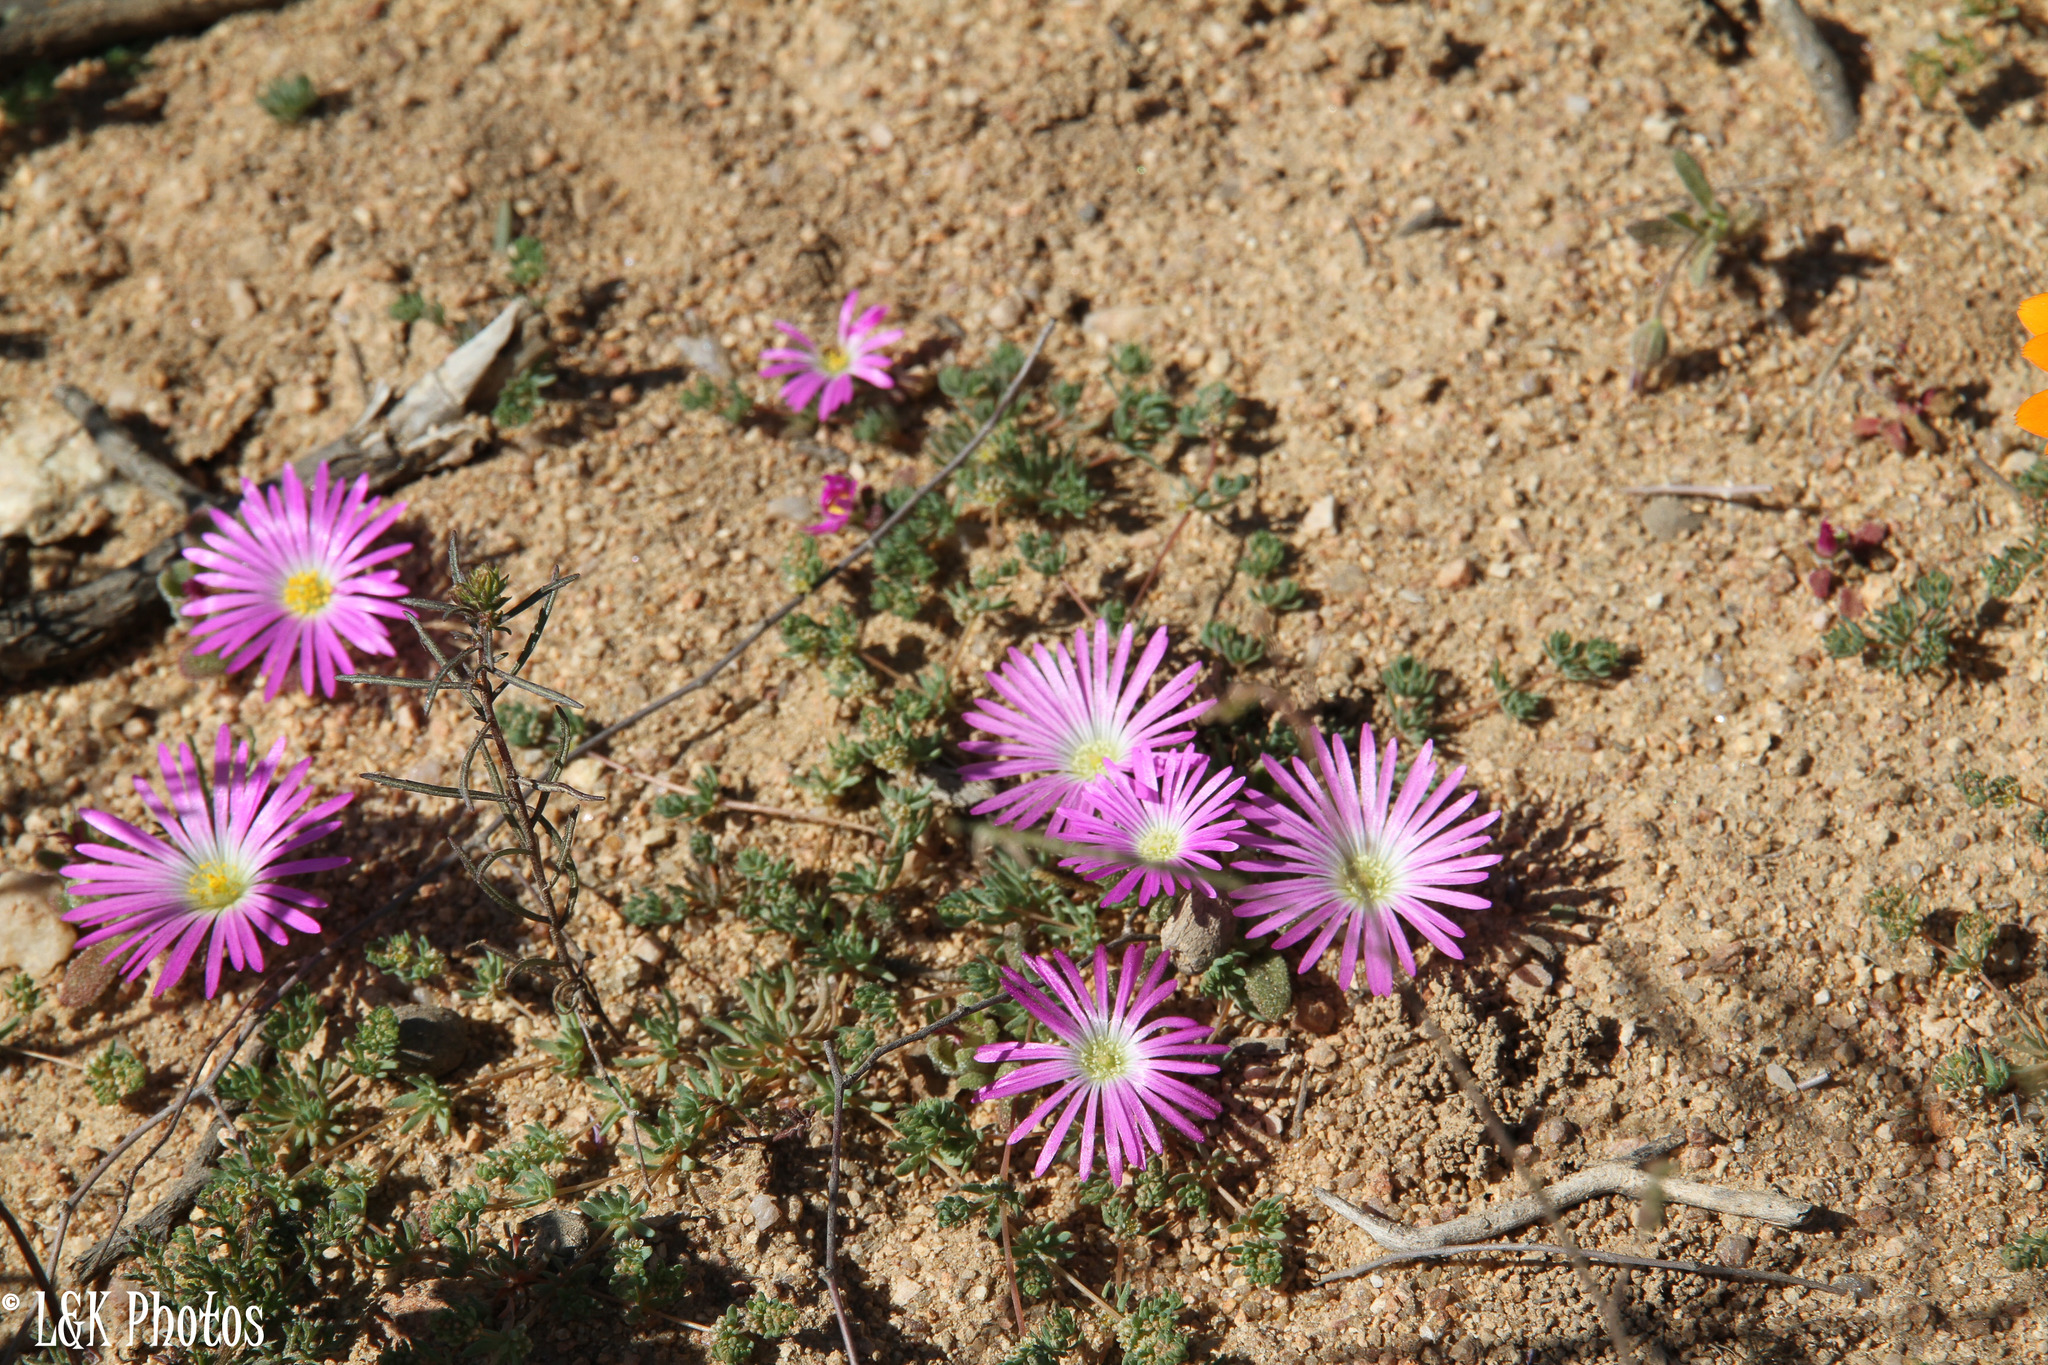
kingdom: Plantae
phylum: Tracheophyta
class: Magnoliopsida
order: Caryophyllales
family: Aizoaceae
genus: Cleretum
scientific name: Cleretum hestermalense
